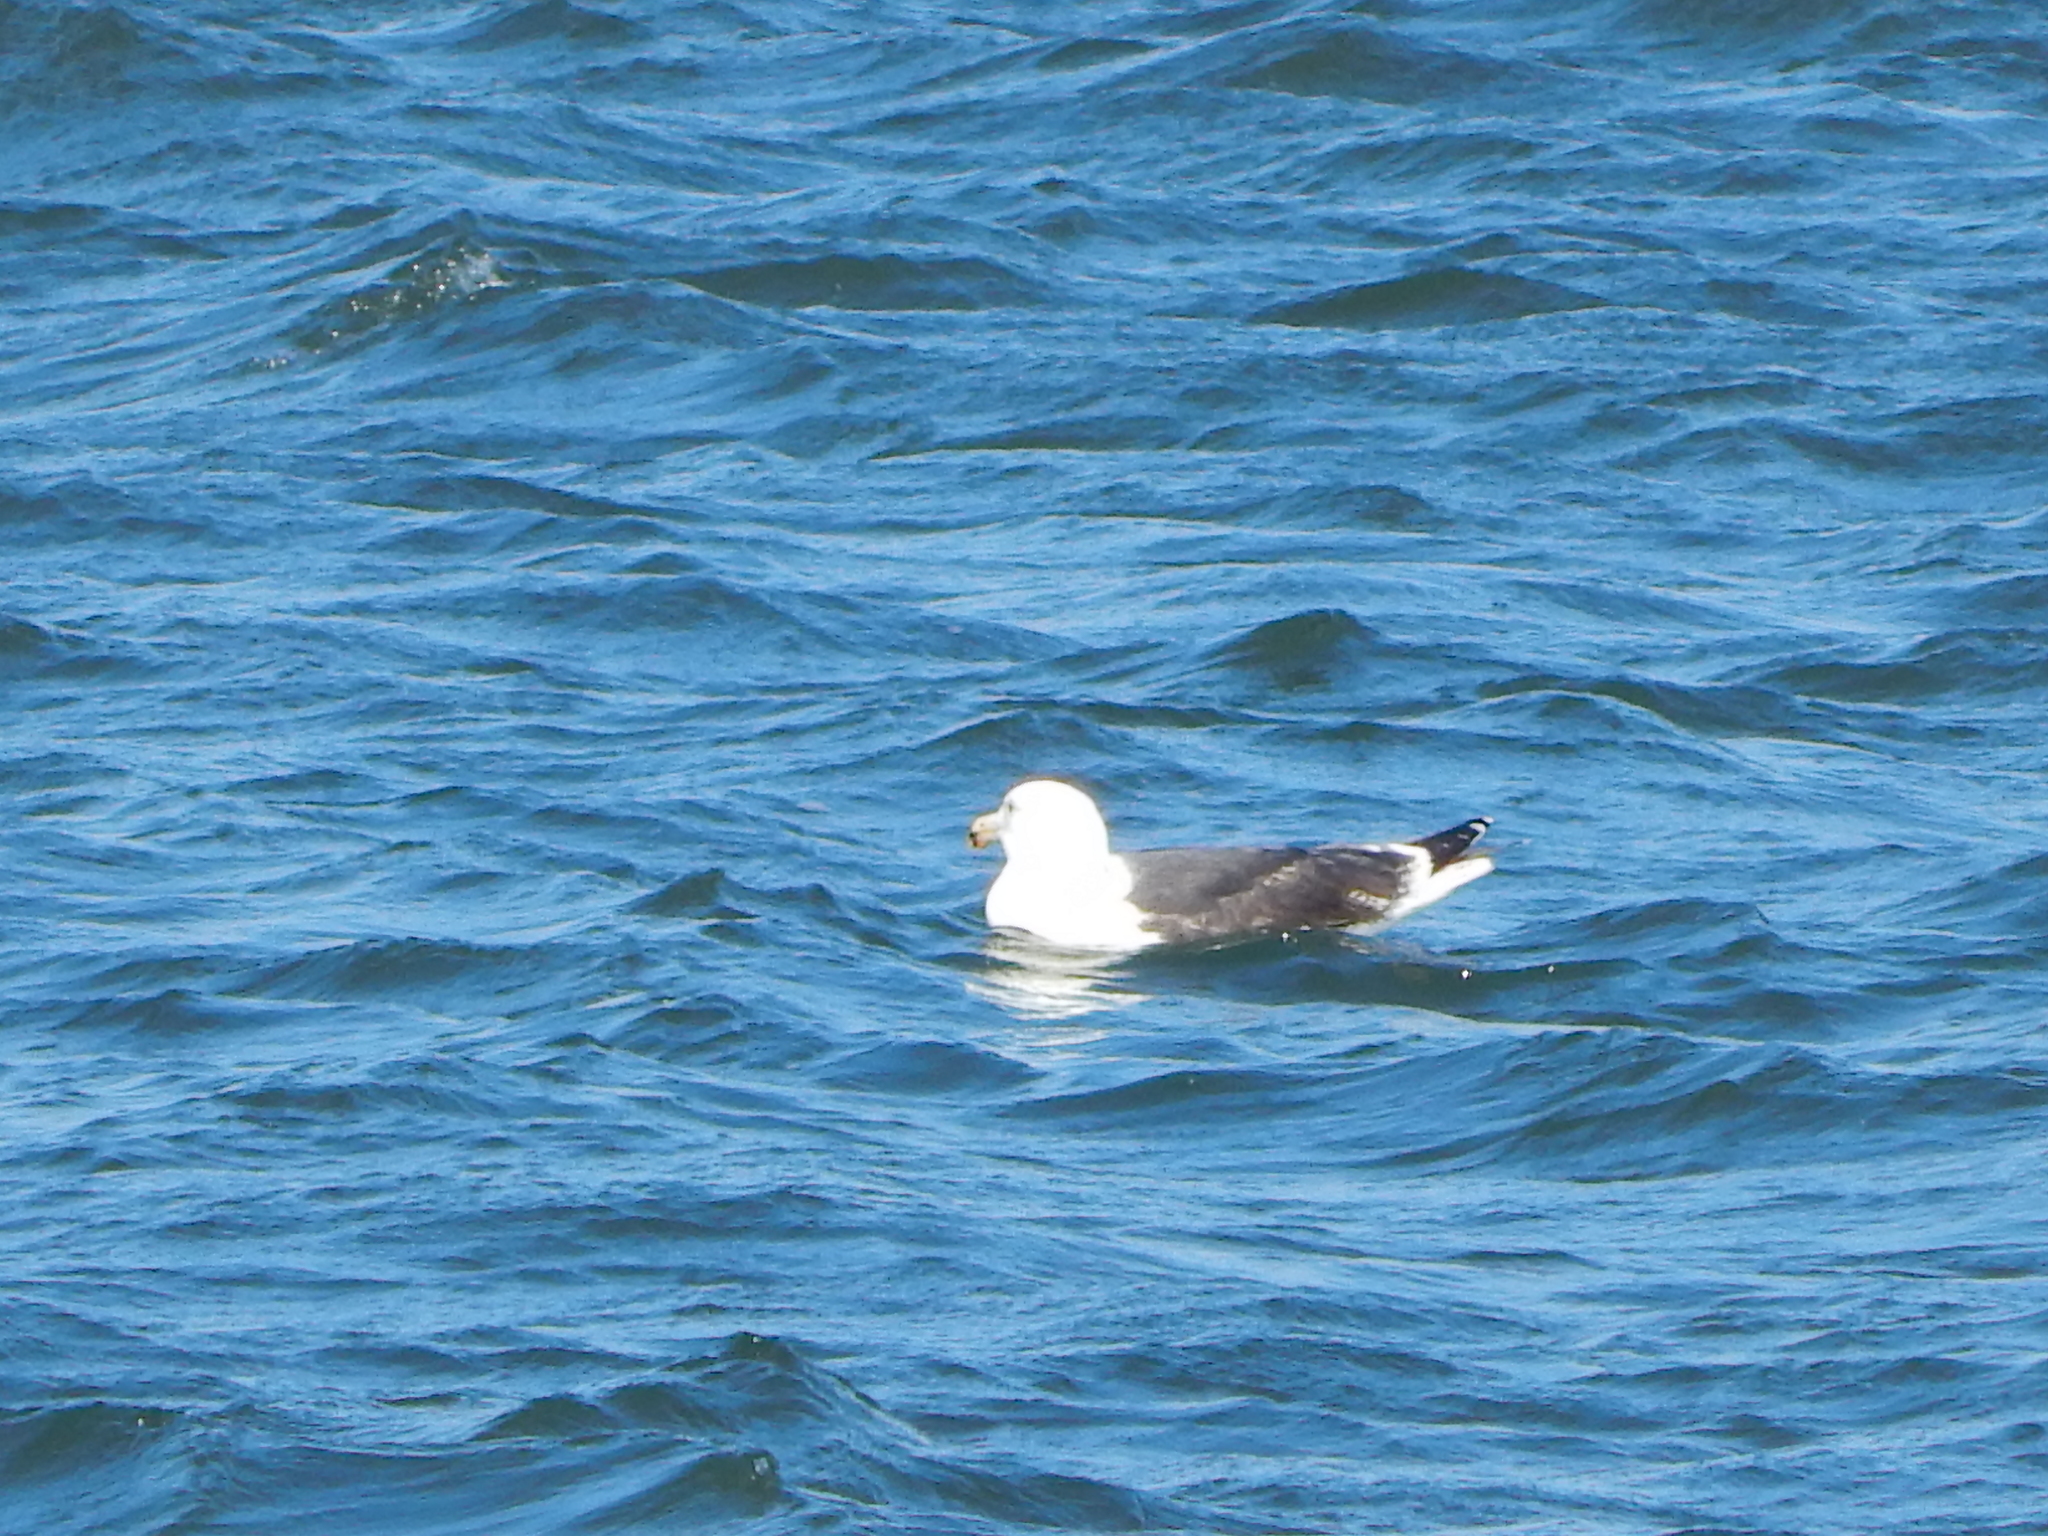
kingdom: Animalia
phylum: Chordata
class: Aves
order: Charadriiformes
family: Laridae
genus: Larus
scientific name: Larus marinus
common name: Great black-backed gull
